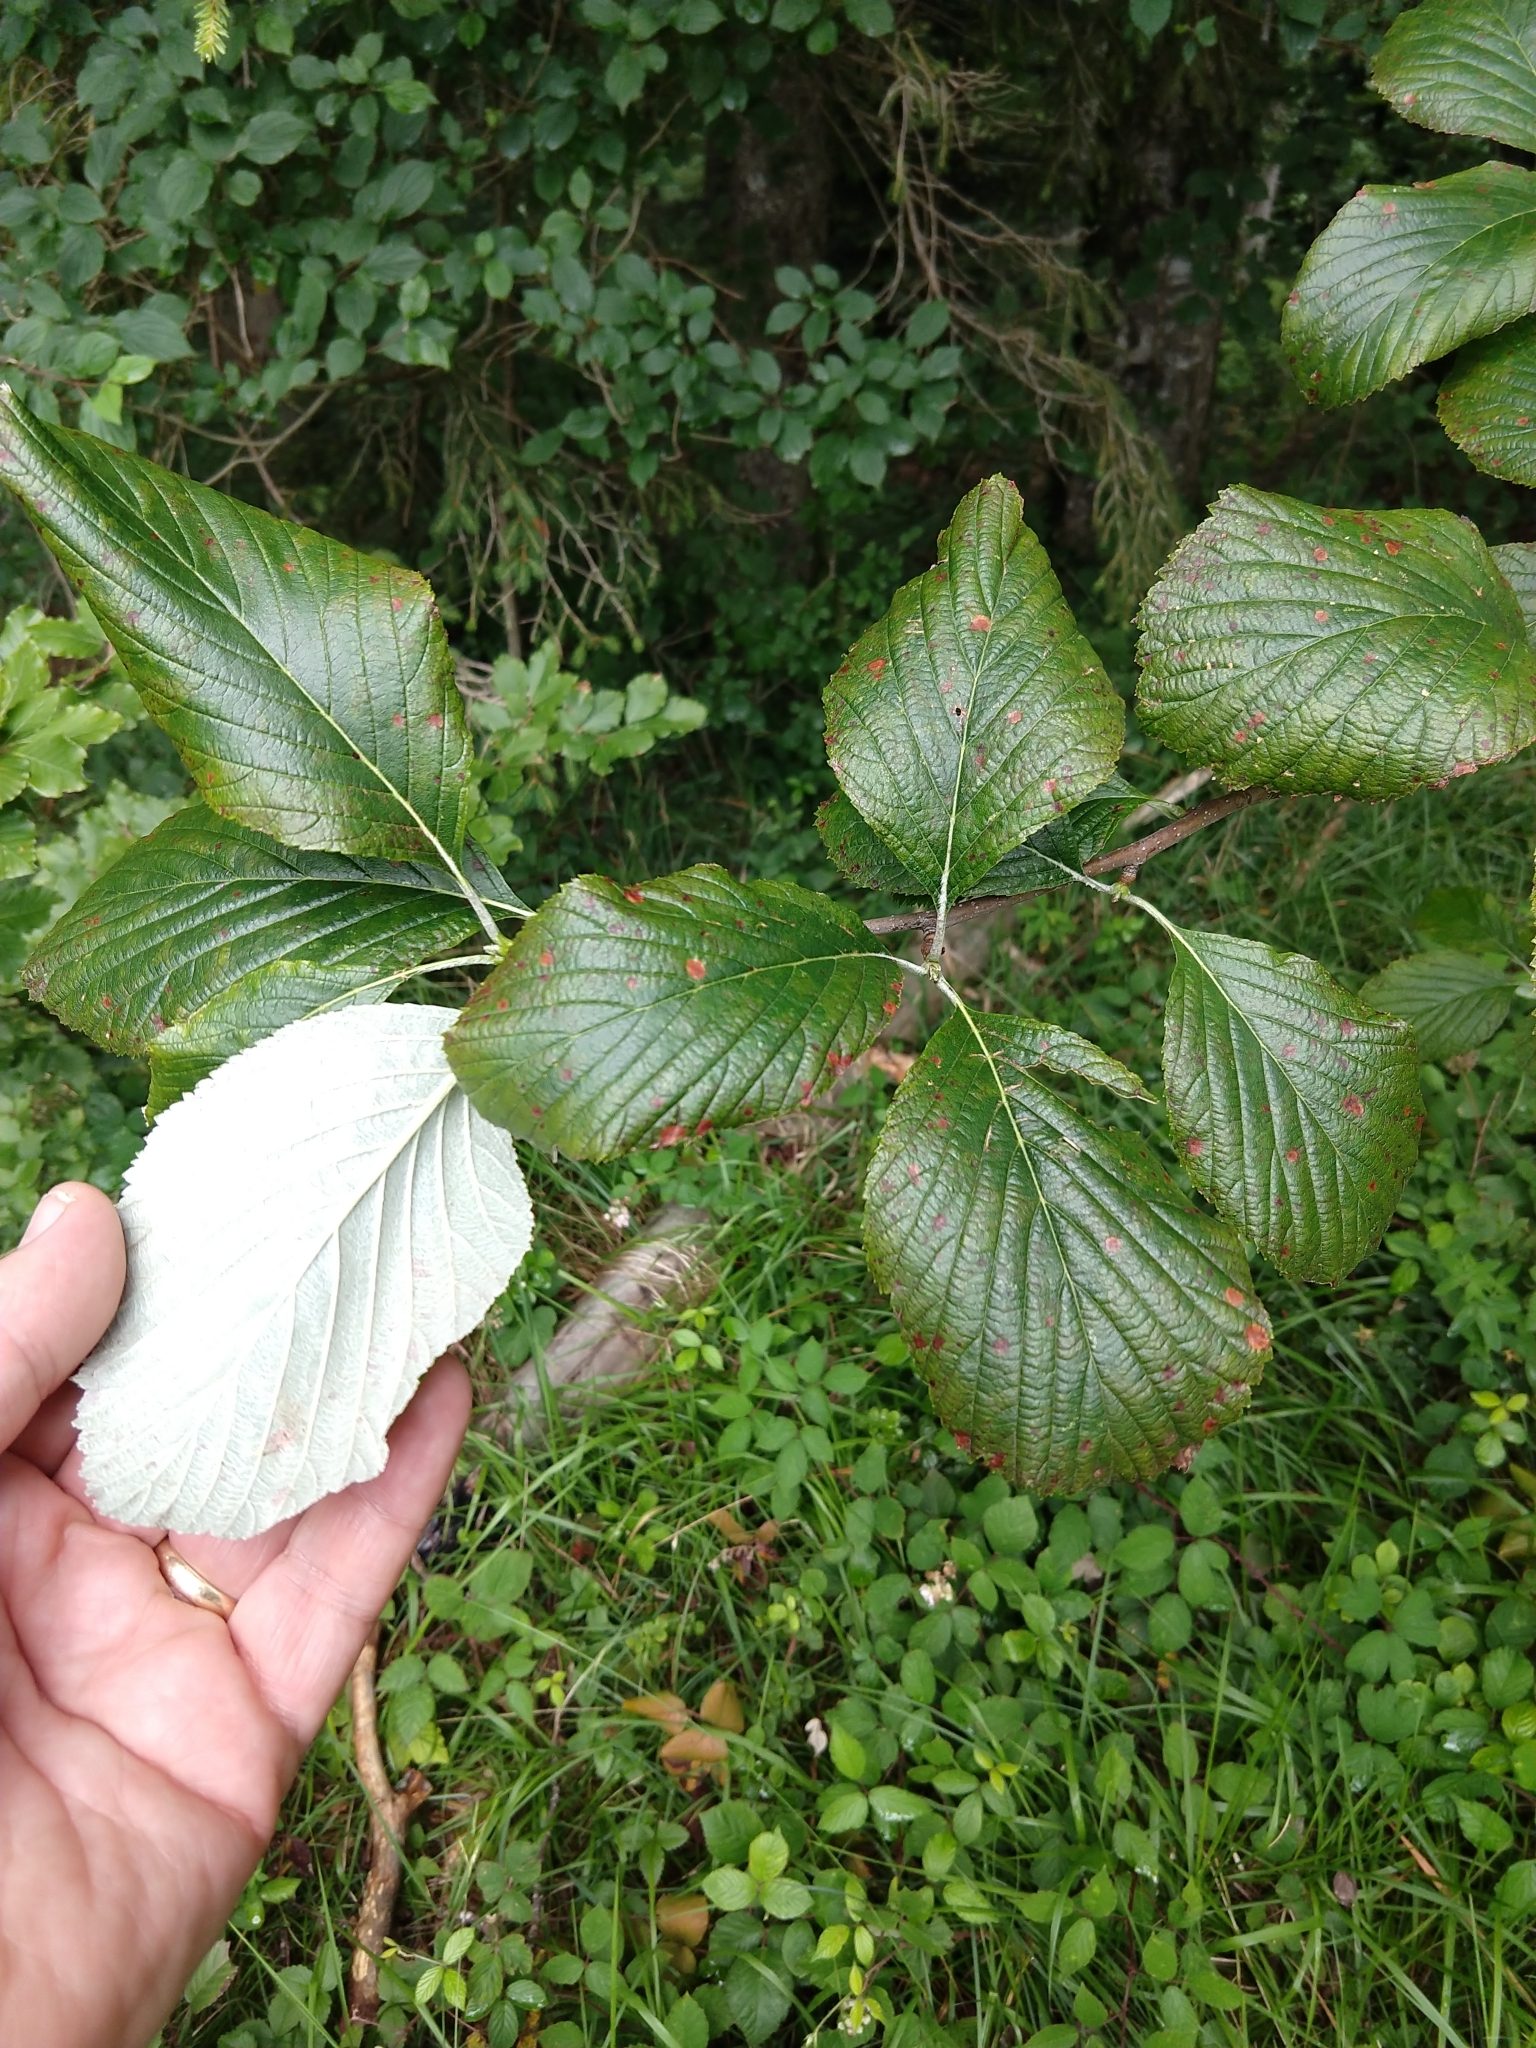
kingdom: Plantae
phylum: Tracheophyta
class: Magnoliopsida
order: Rosales
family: Rosaceae
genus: Aria
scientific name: Aria edulis
